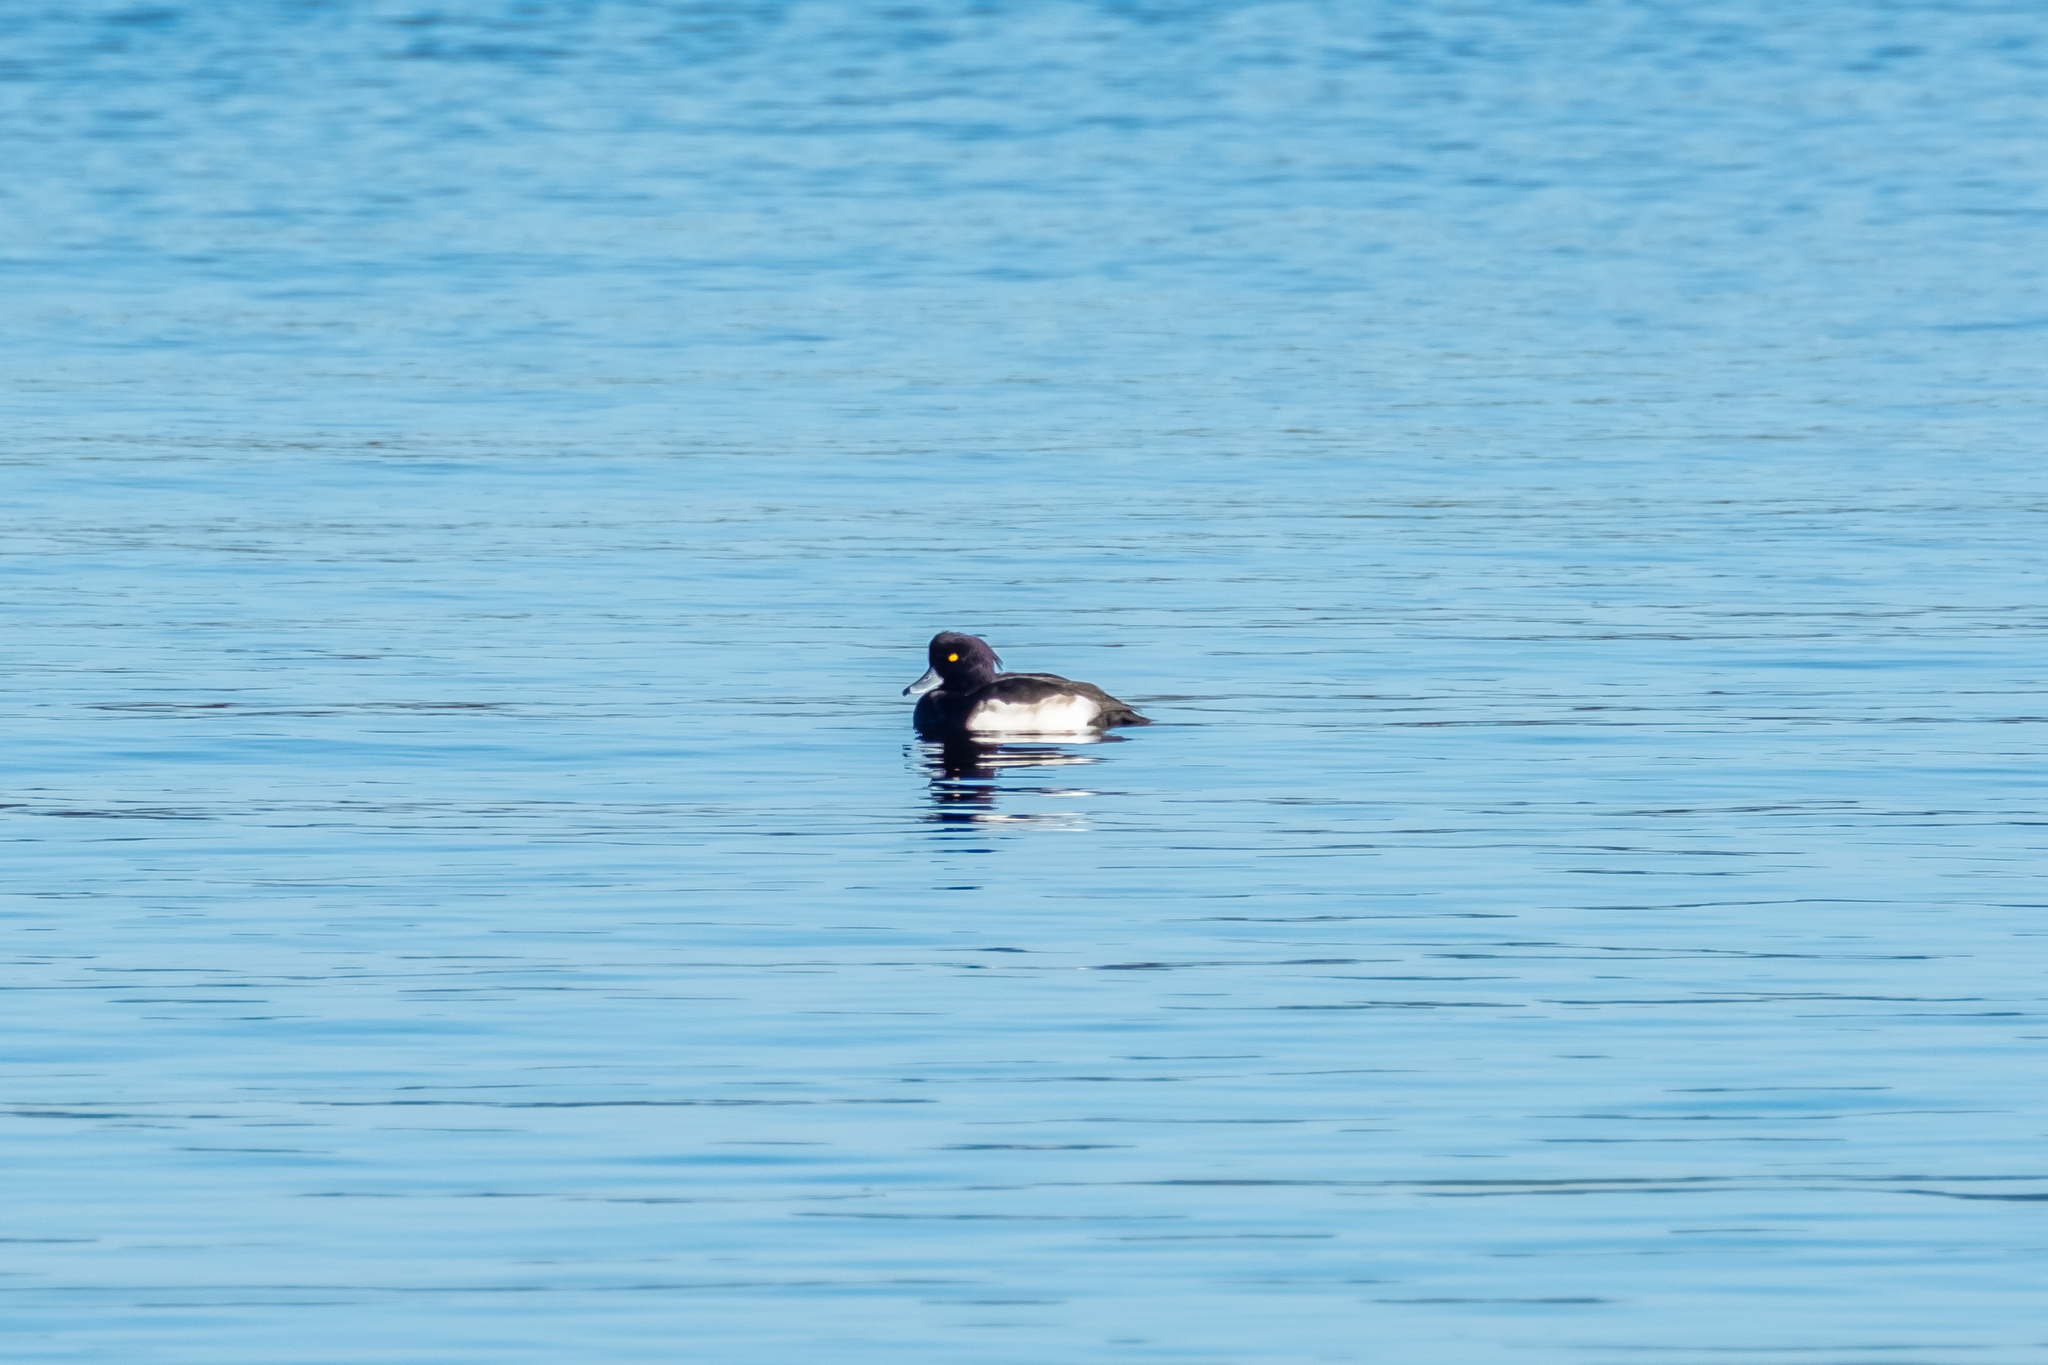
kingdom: Animalia
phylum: Chordata
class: Aves
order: Anseriformes
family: Anatidae
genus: Aythya
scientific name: Aythya fuligula
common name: Tufted duck
